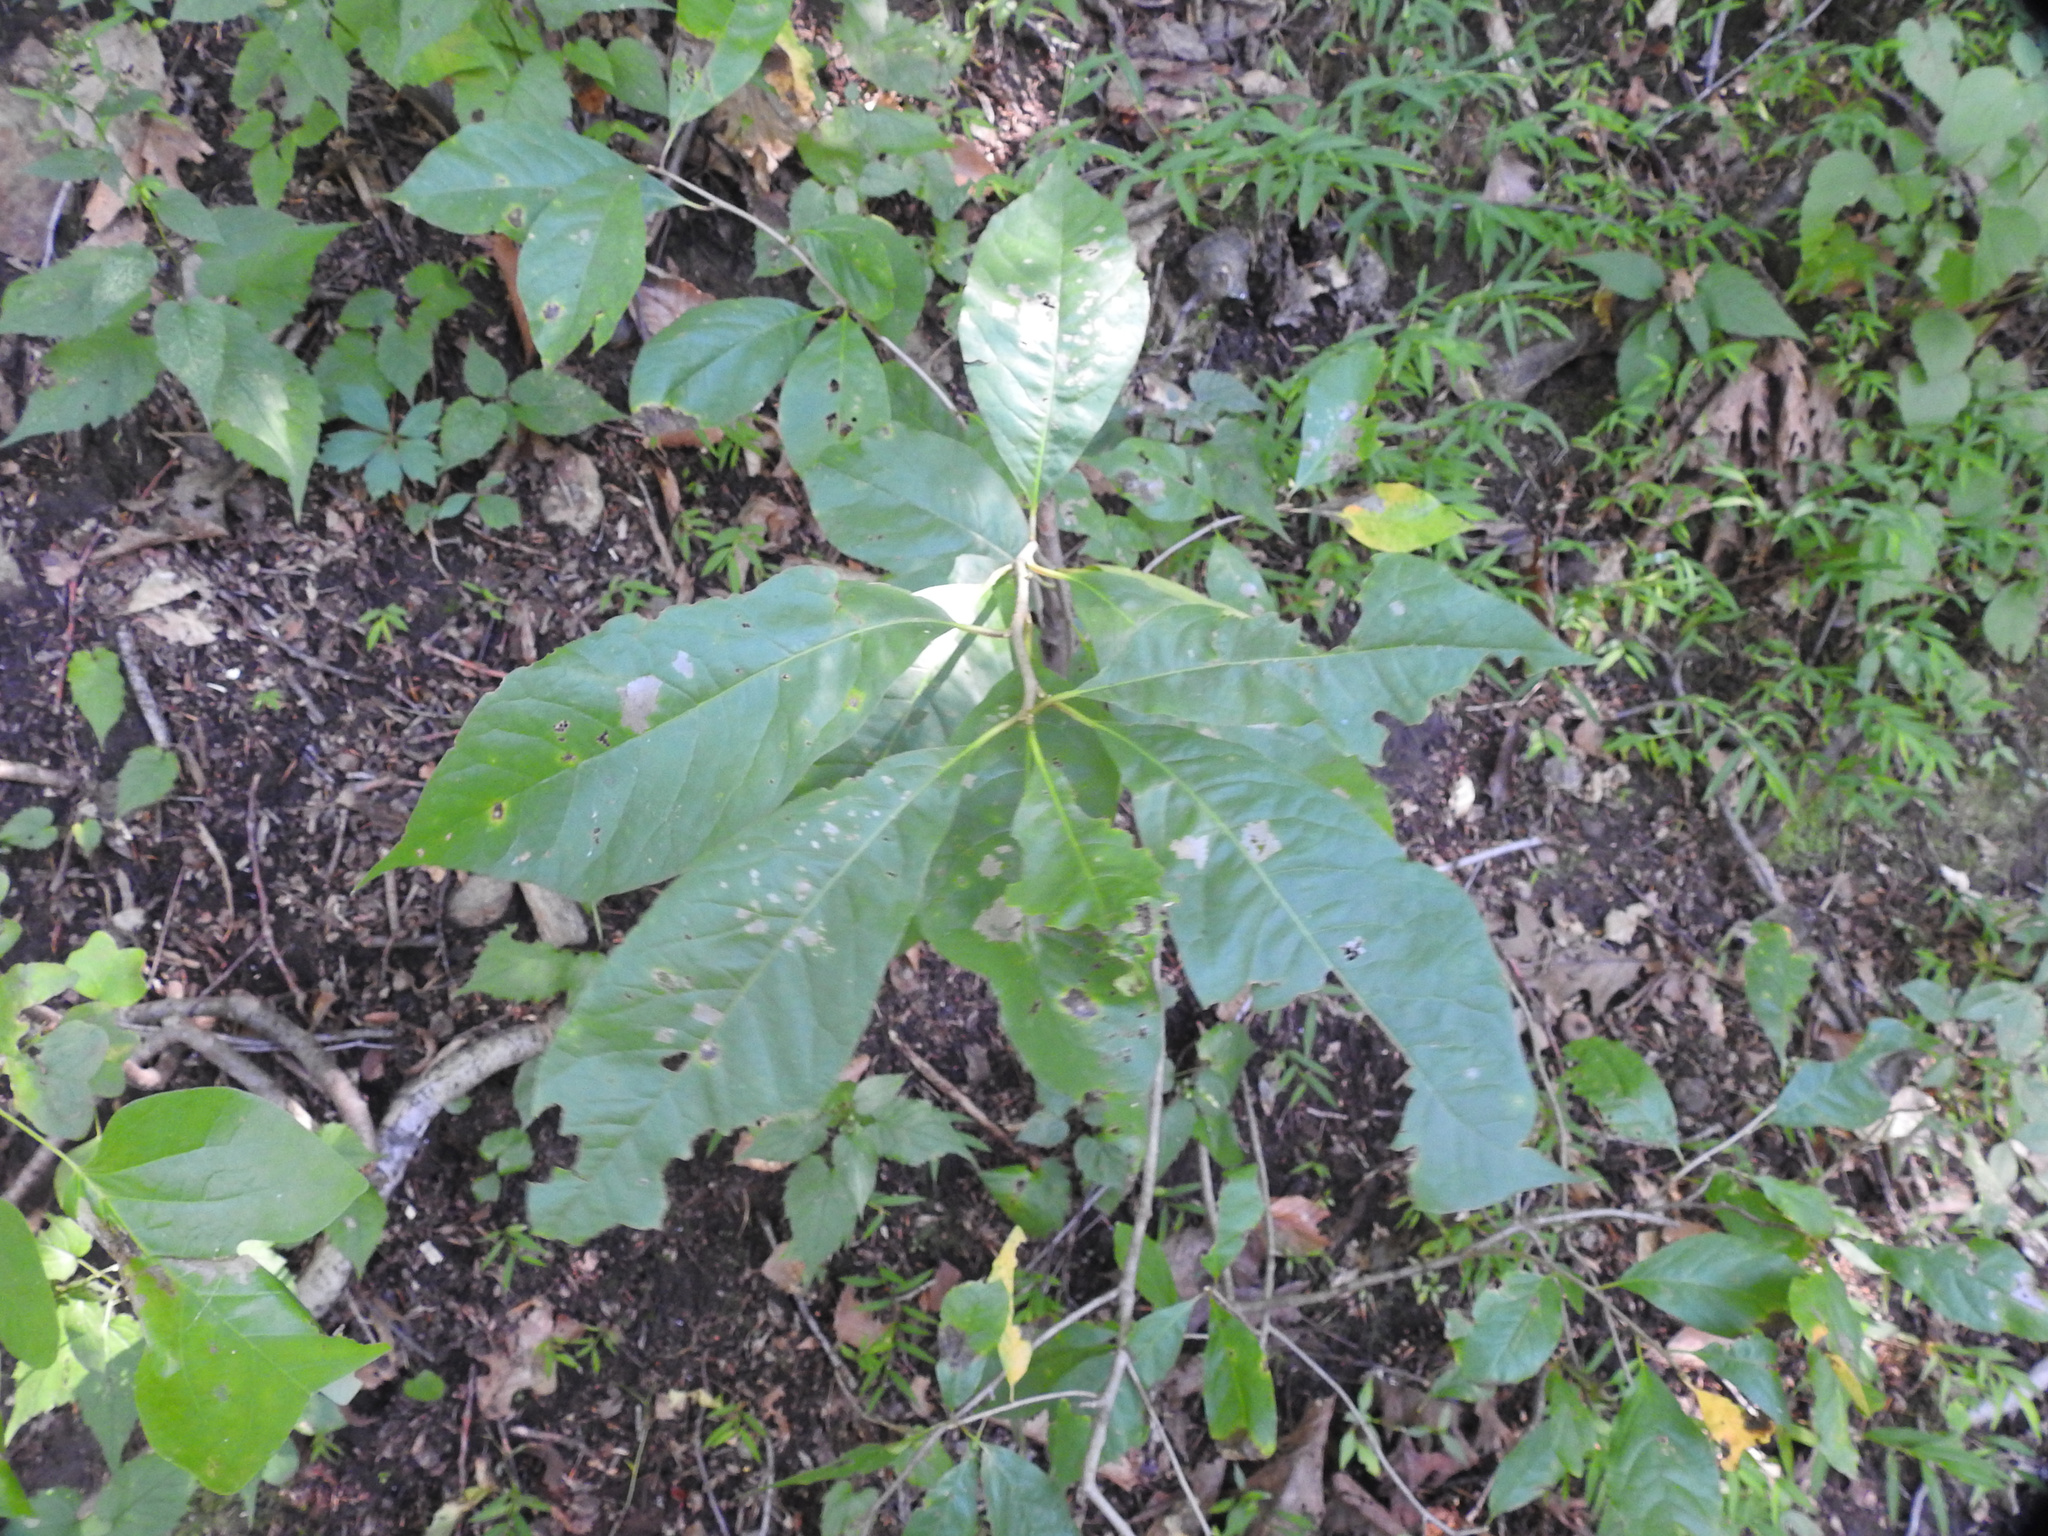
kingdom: Plantae
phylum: Tracheophyta
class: Magnoliopsida
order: Cornales
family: Nyssaceae
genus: Nyssa
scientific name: Nyssa sylvatica
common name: Black tupelo
